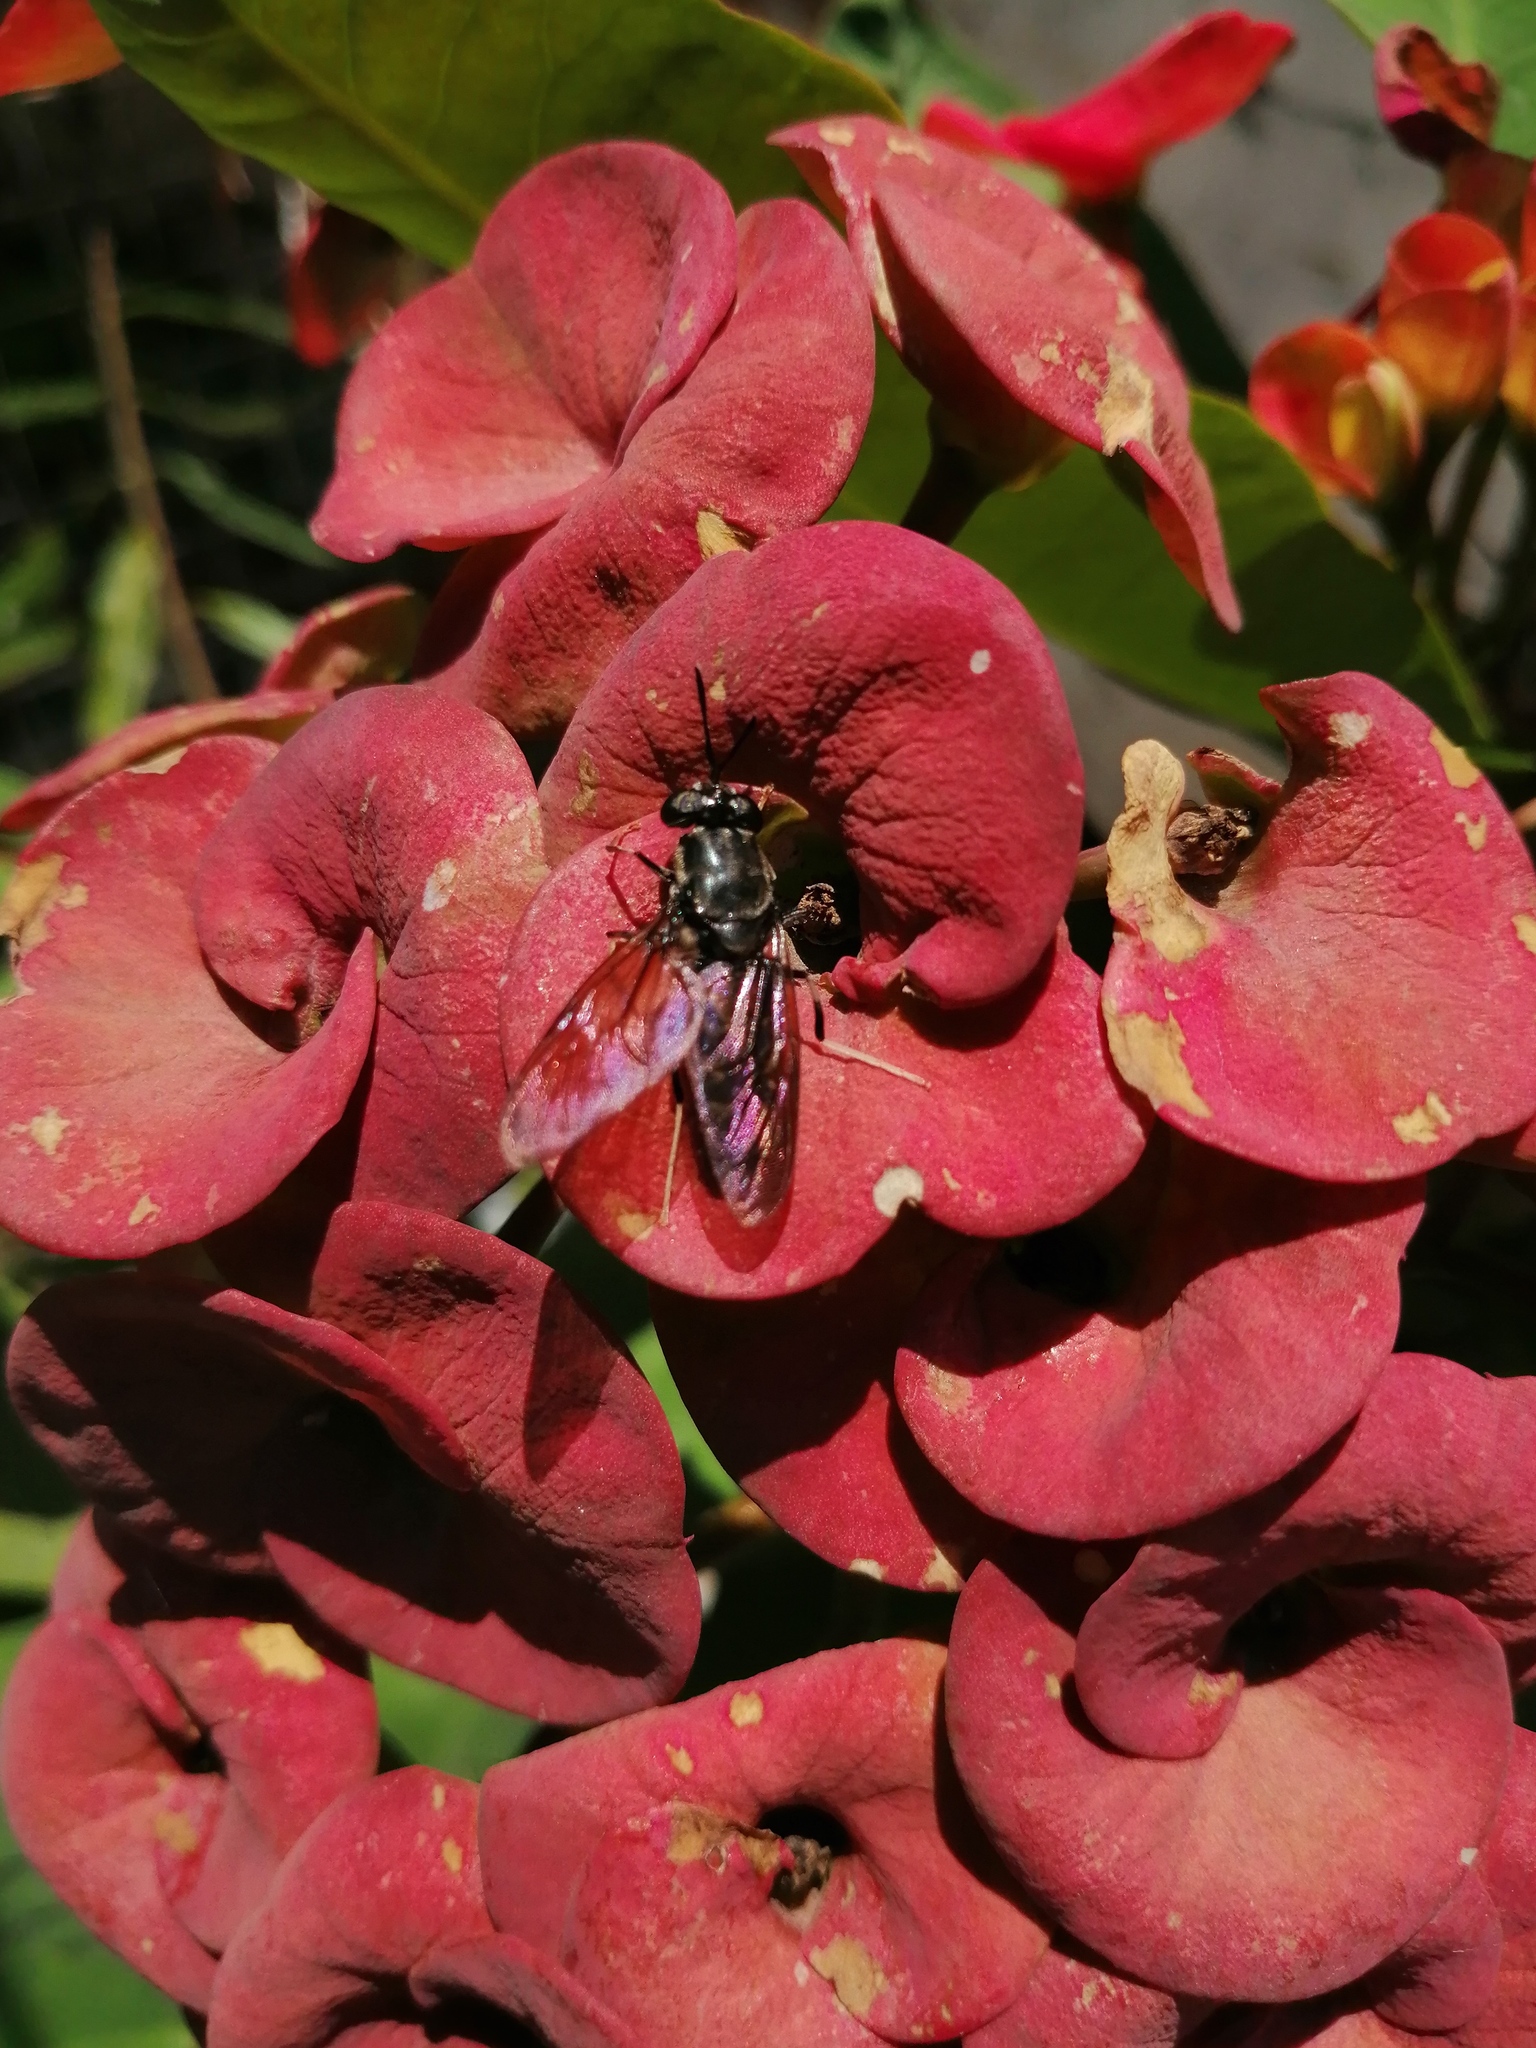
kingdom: Animalia
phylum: Arthropoda
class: Insecta
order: Diptera
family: Stratiomyidae
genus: Hermetia
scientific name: Hermetia illucens
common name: Black soldier fly
